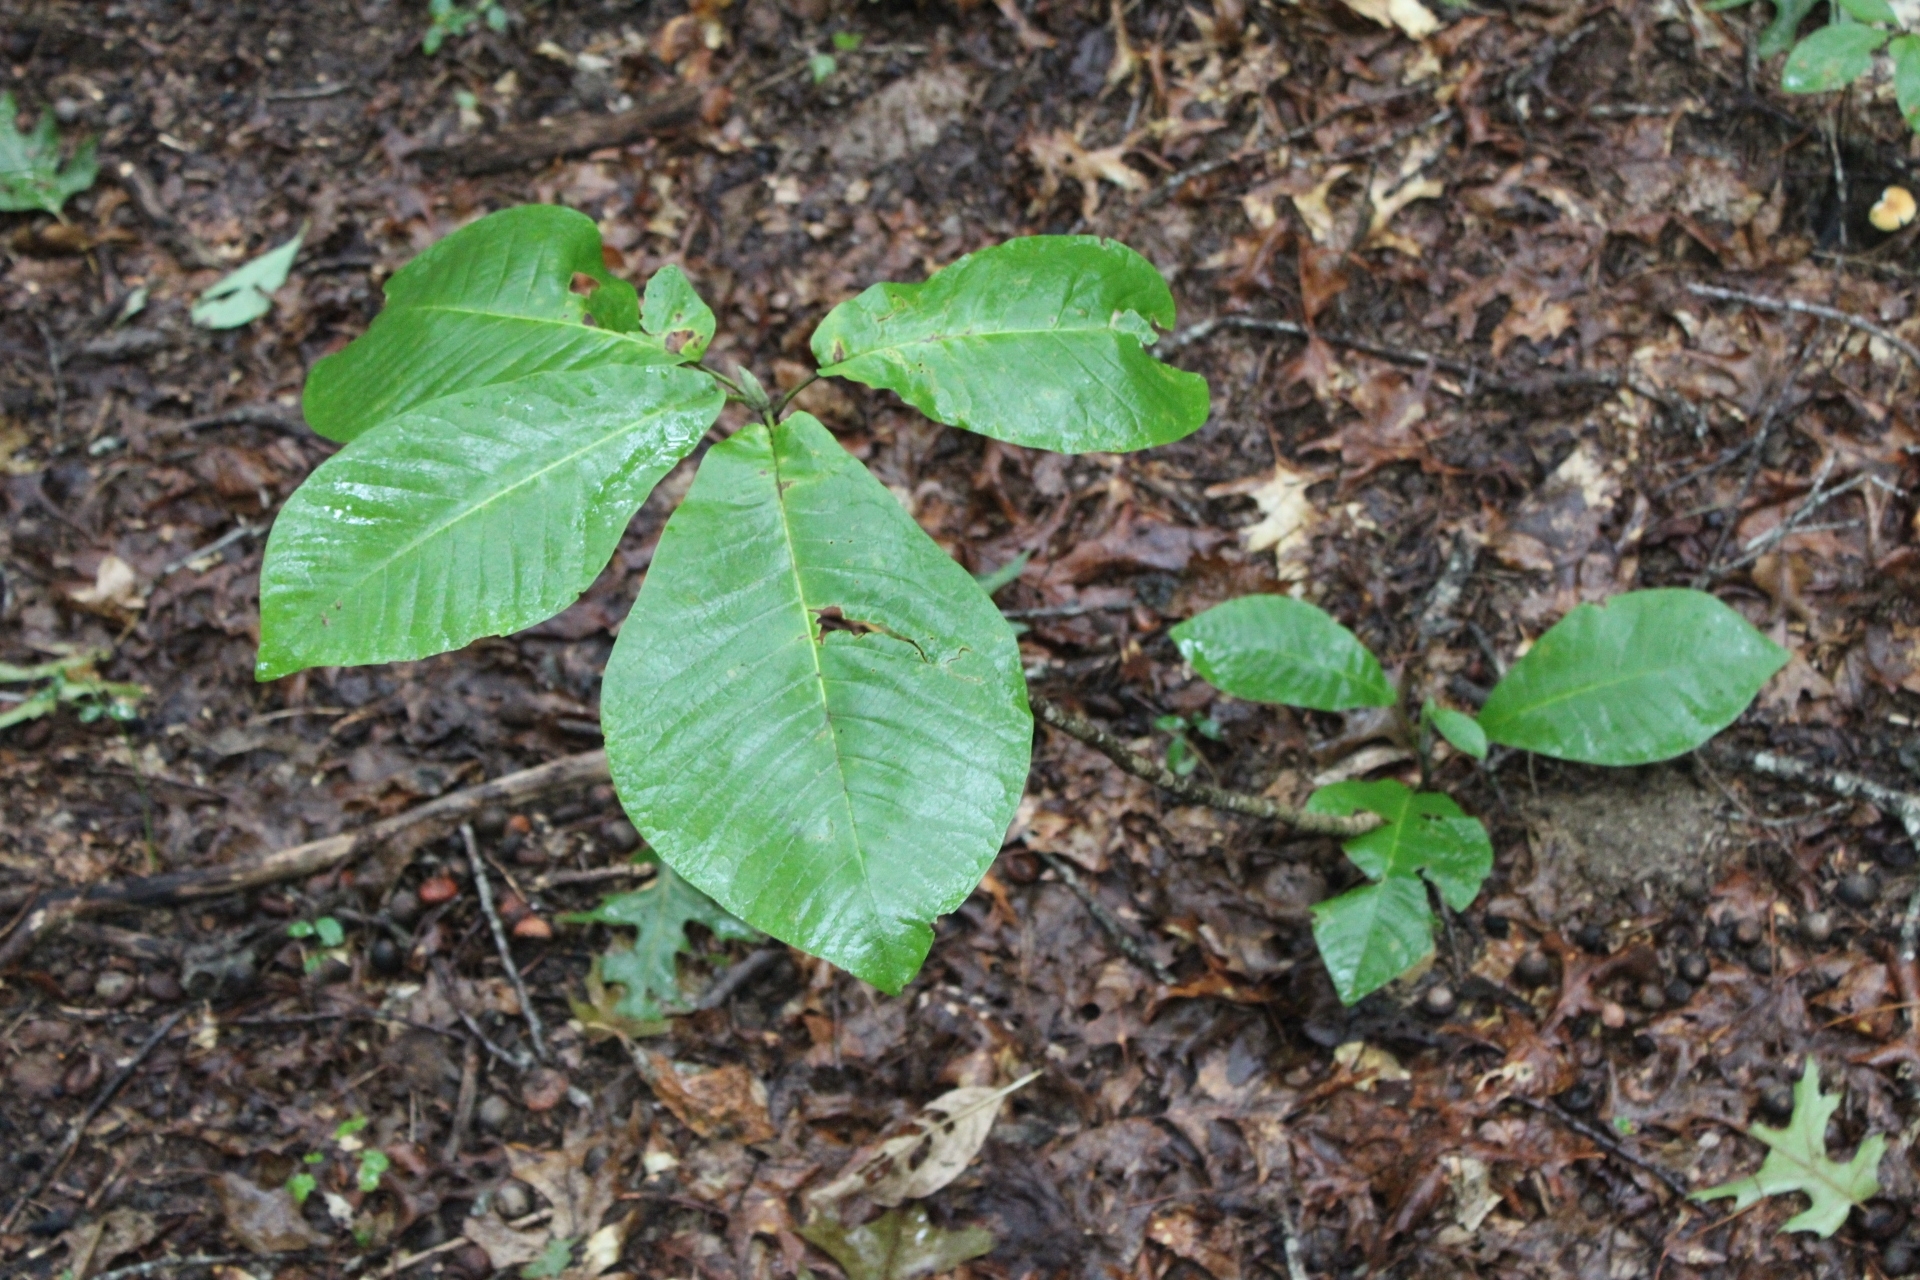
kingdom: Plantae
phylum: Tracheophyta
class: Magnoliopsida
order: Magnoliales
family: Magnoliaceae
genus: Magnolia
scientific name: Magnolia macrophylla
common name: Big-leaf magnolia
